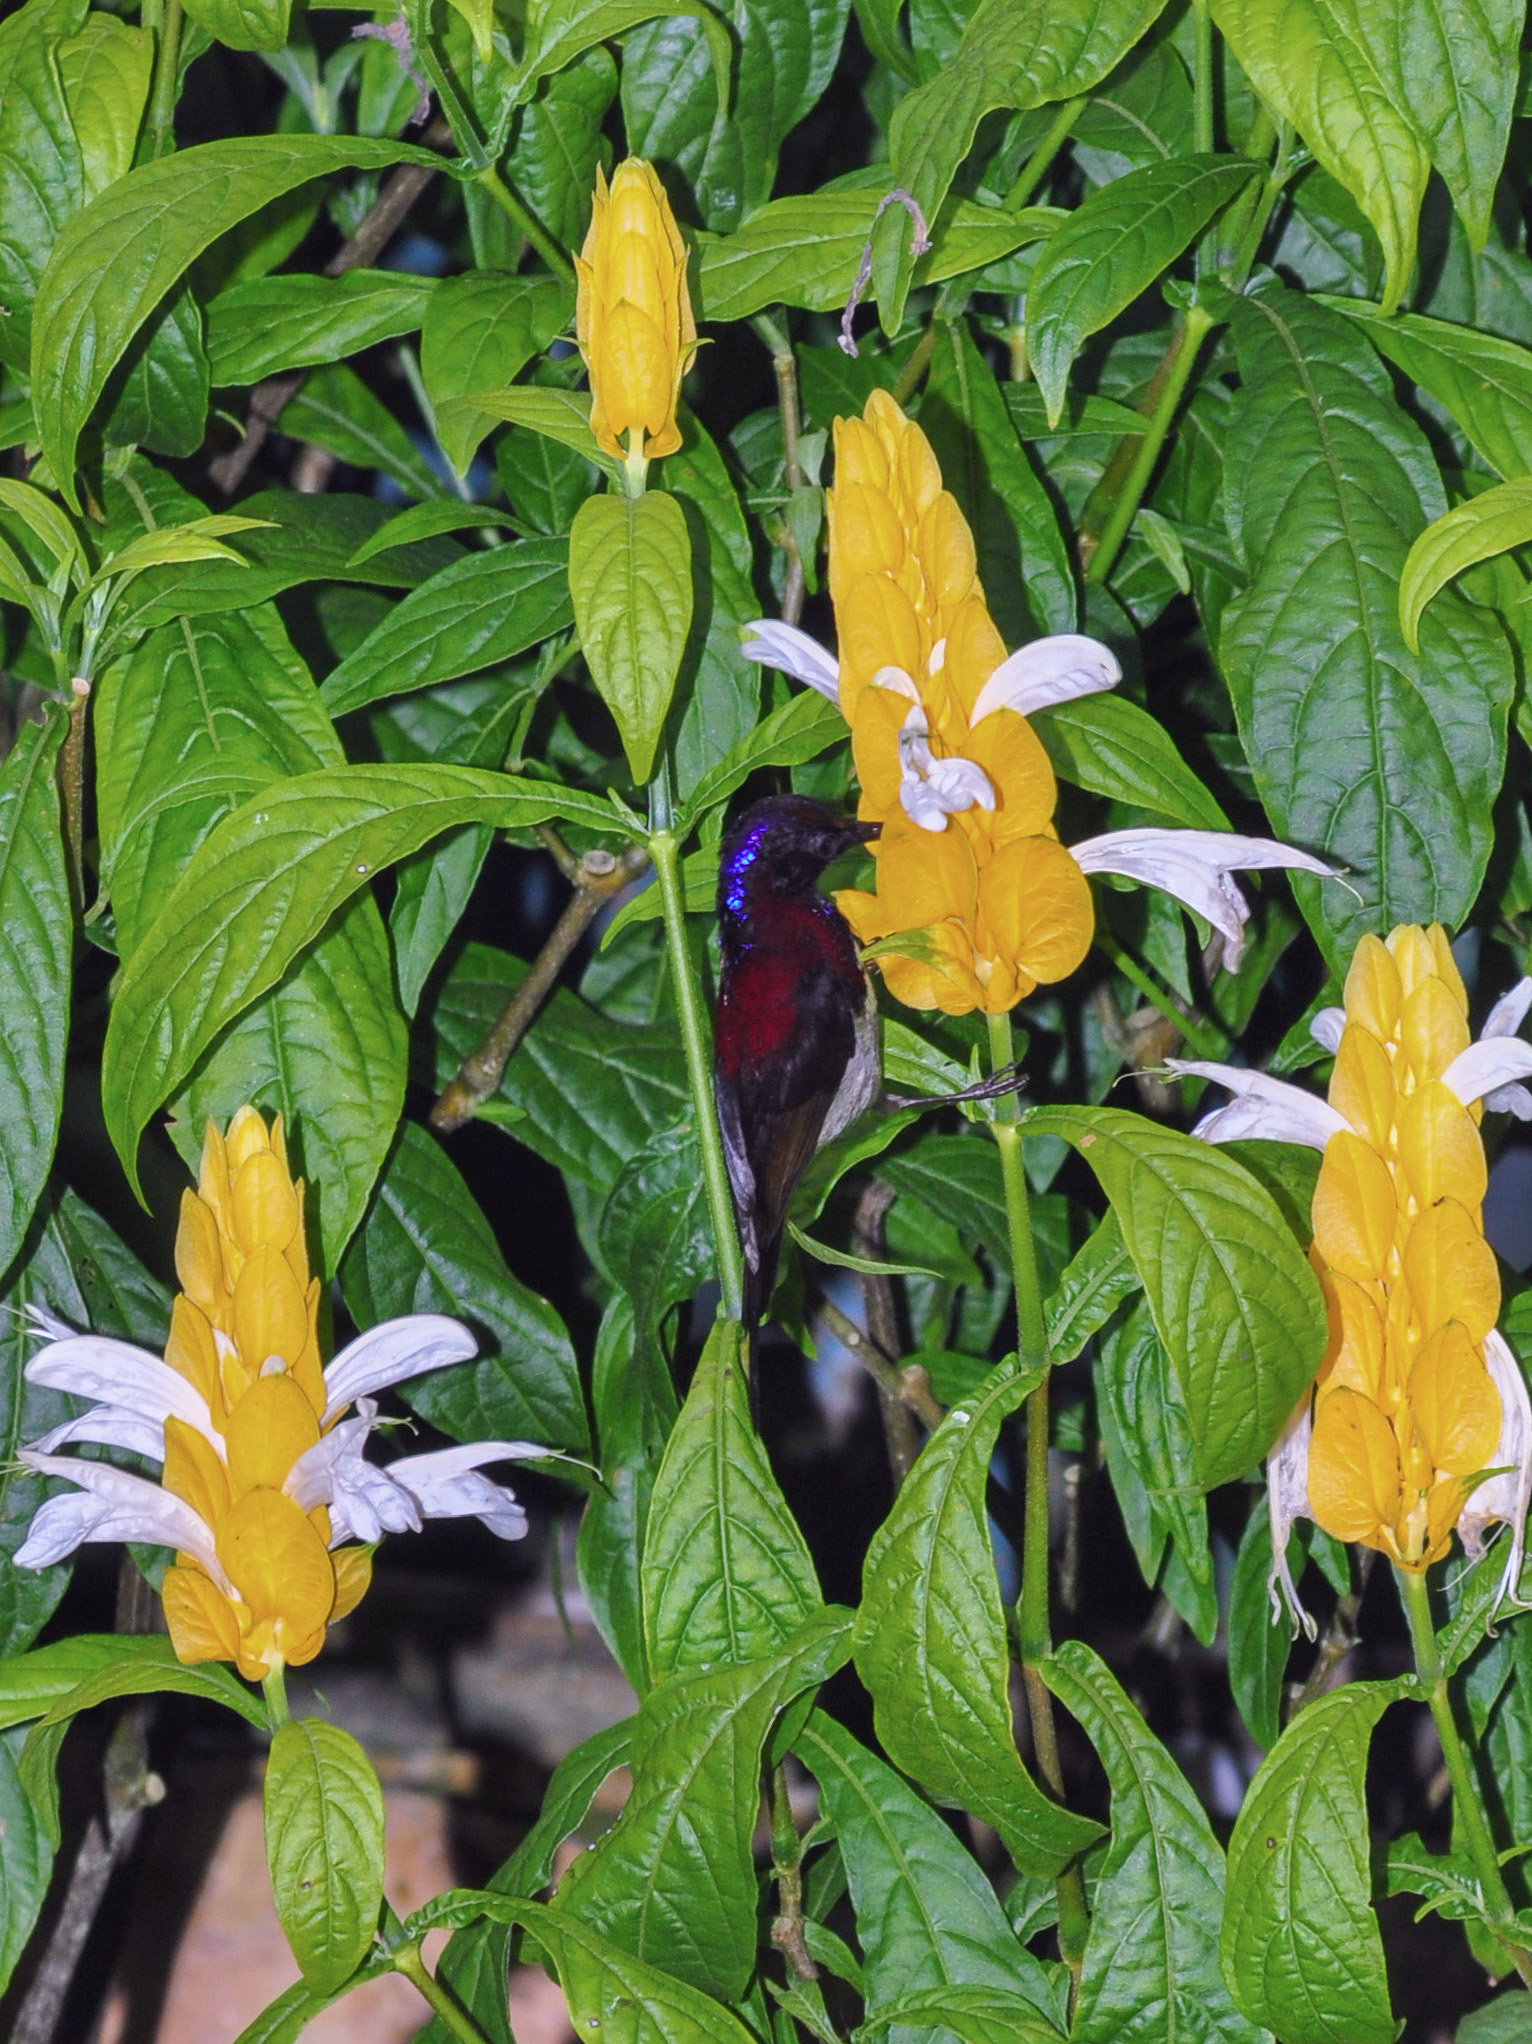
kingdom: Animalia
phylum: Chordata
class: Aves
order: Passeriformes
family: Nectariniidae
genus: Aethopyga
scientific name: Aethopyga saturata
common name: Black-throated sunbird
